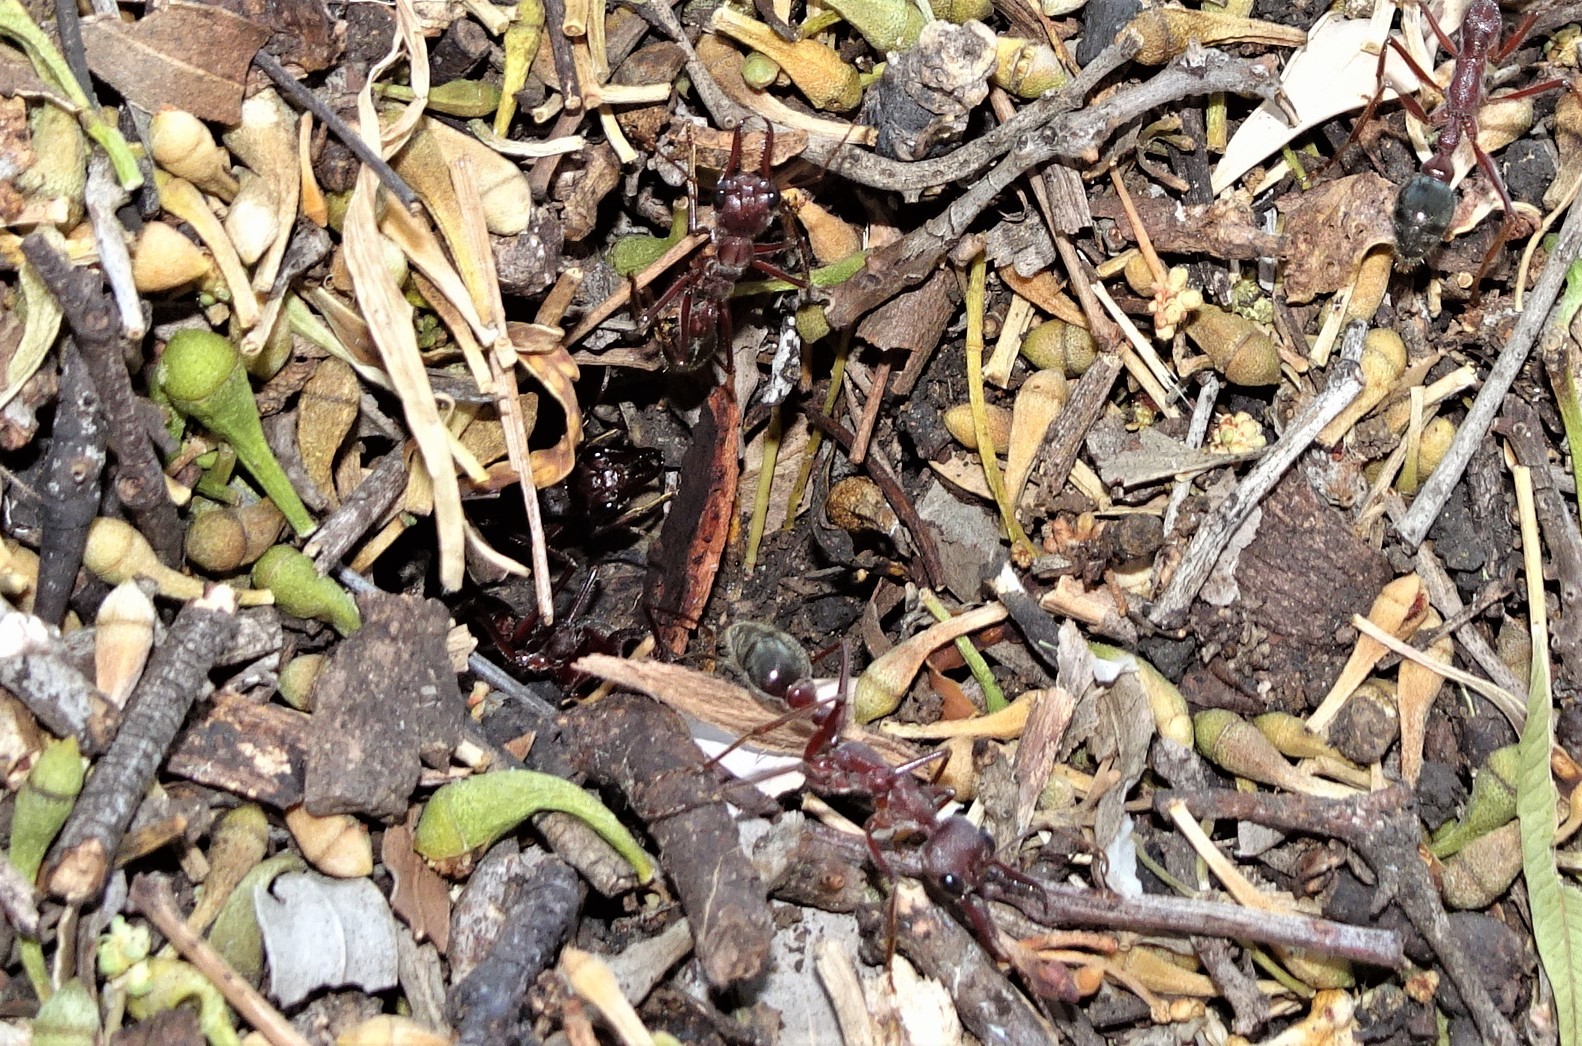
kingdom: Animalia
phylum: Arthropoda
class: Insecta
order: Hymenoptera
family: Formicidae
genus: Myrmecia
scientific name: Myrmecia brevinoda
